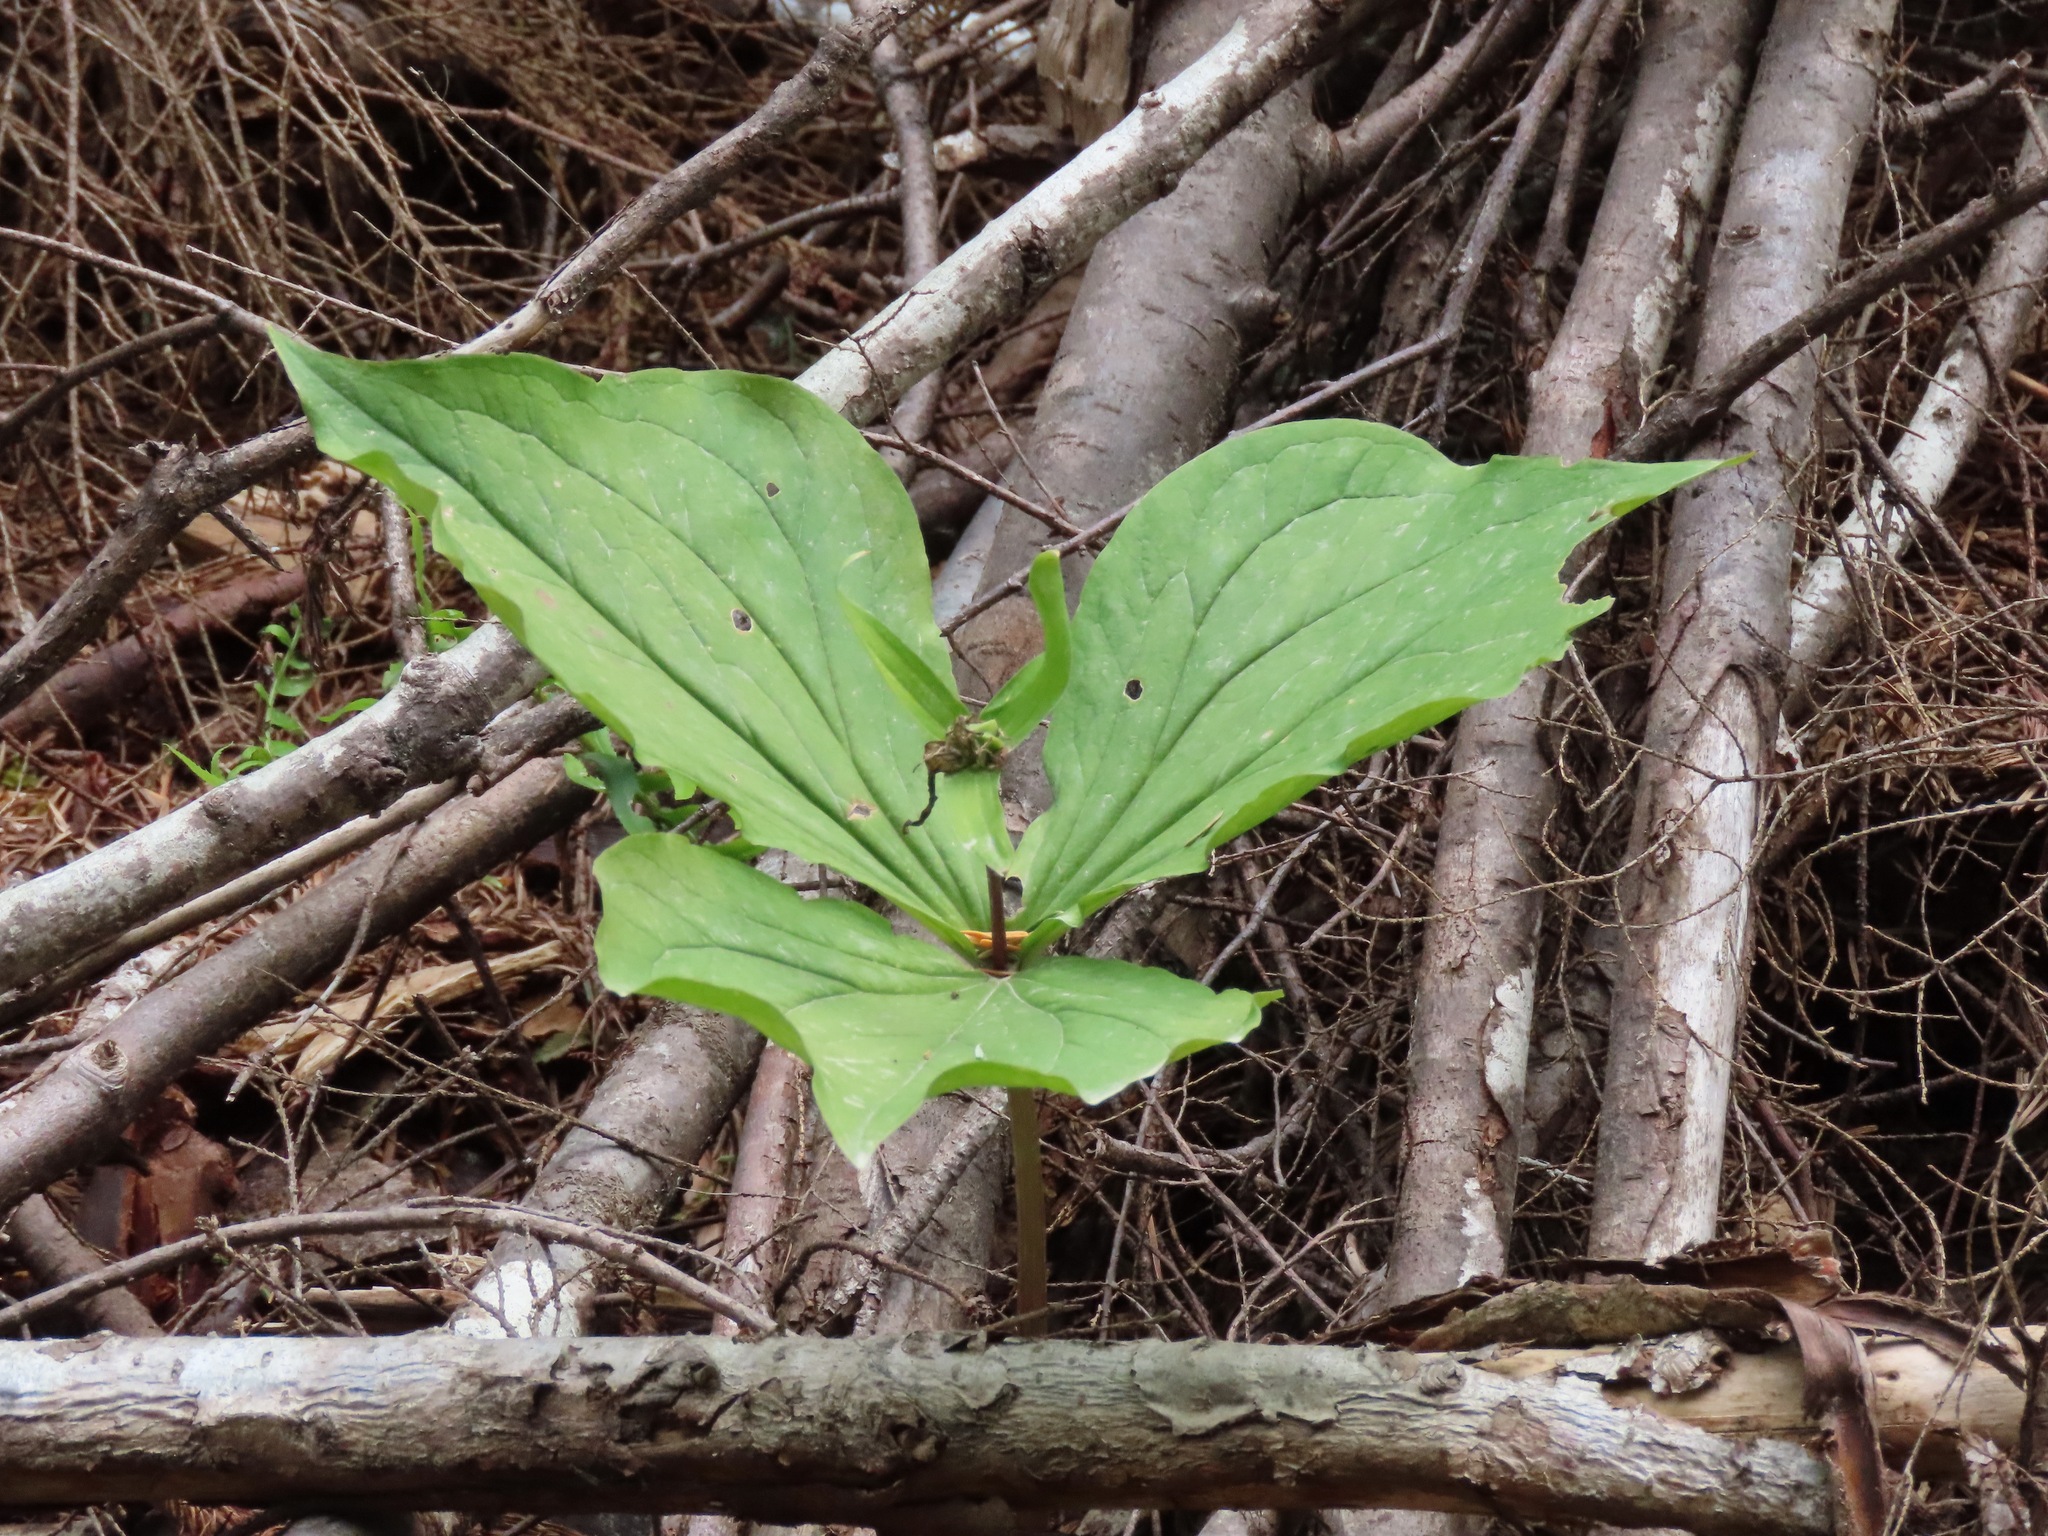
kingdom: Plantae
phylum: Tracheophyta
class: Liliopsida
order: Liliales
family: Melanthiaceae
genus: Trillium
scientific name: Trillium ovatum
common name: Pacific trillium
